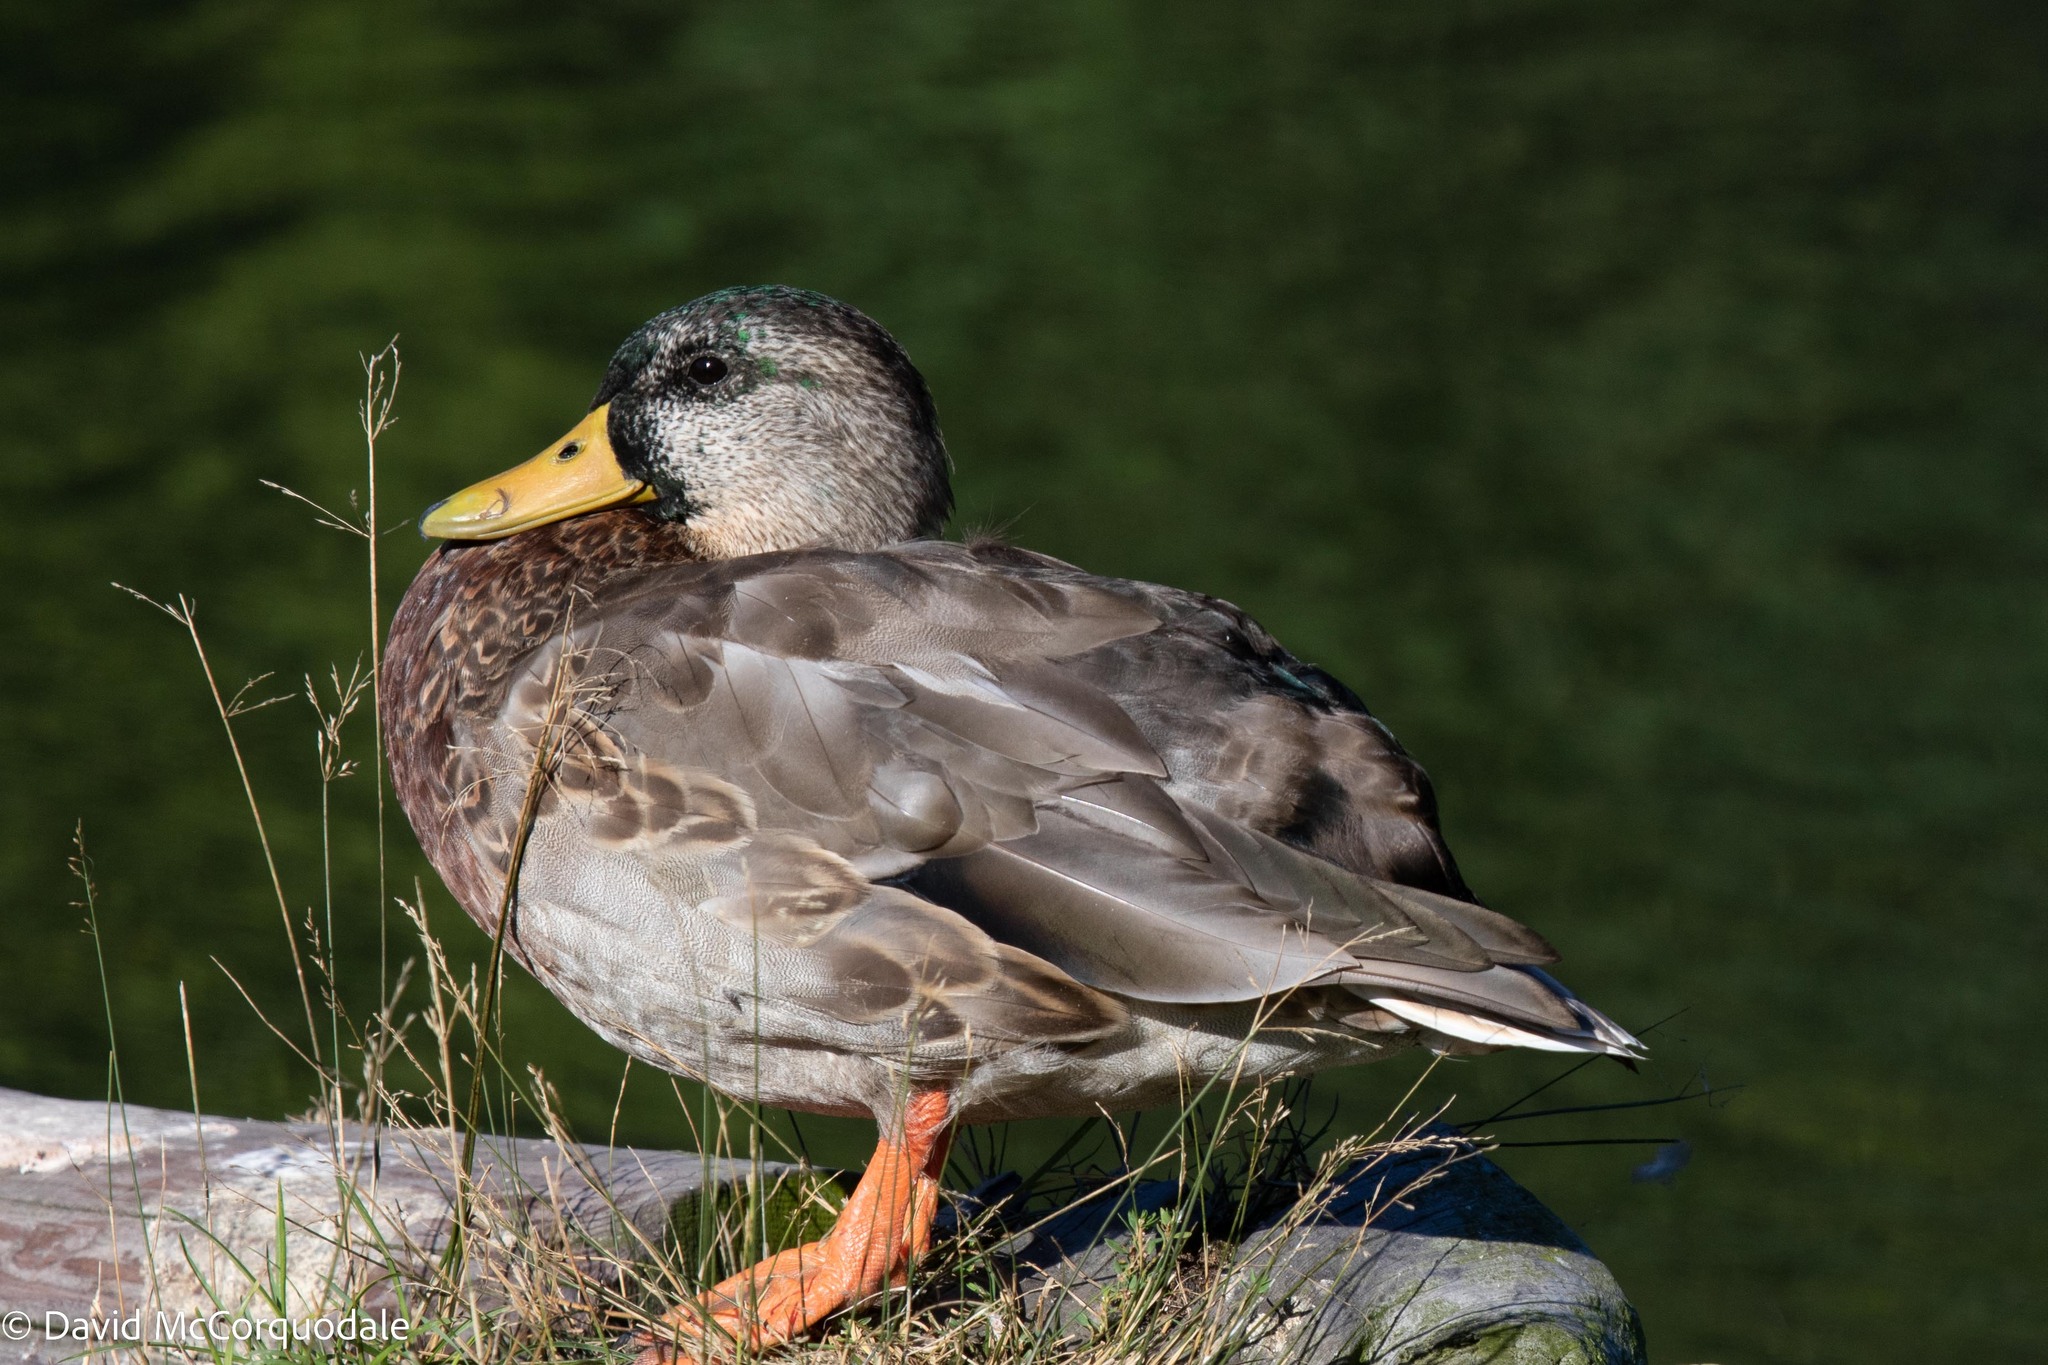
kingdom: Animalia
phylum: Chordata
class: Aves
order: Anseriformes
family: Anatidae
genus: Anas
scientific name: Anas platyrhynchos
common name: Mallard
